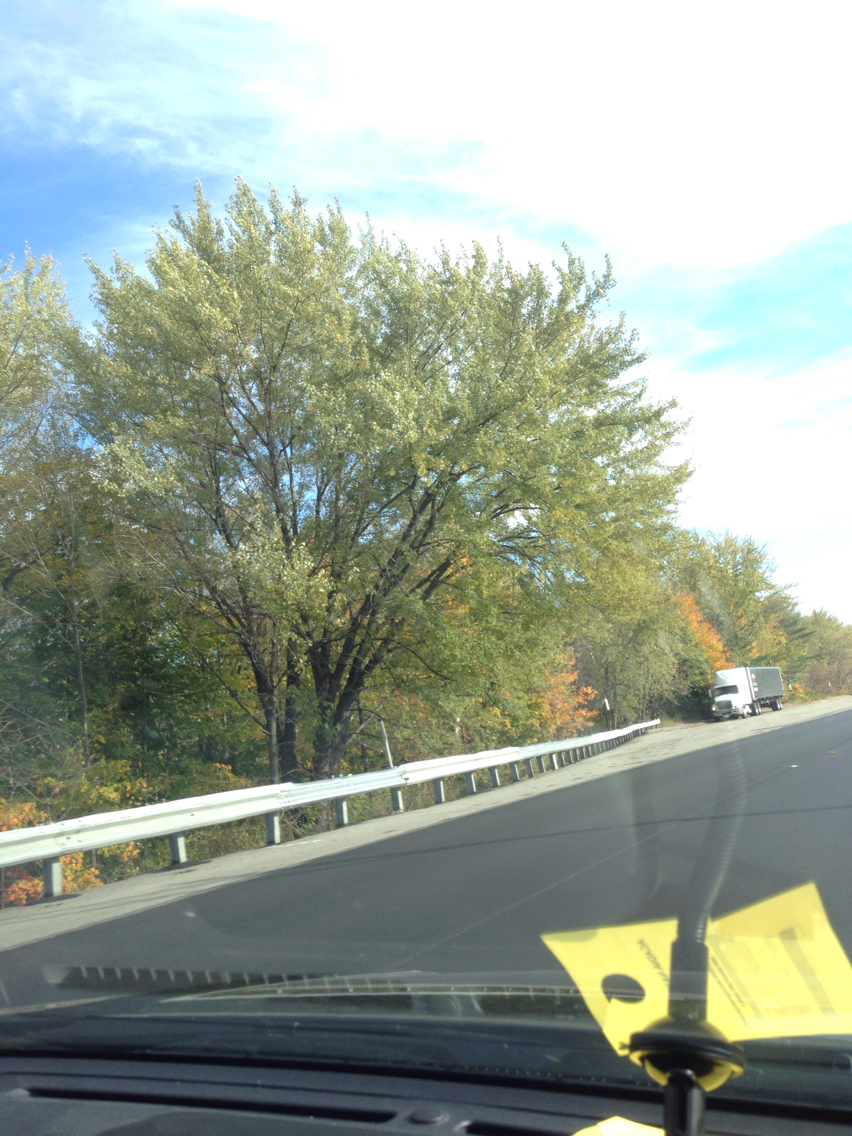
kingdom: Plantae
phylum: Tracheophyta
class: Magnoliopsida
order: Sapindales
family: Sapindaceae
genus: Acer
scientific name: Acer saccharinum
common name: Silver maple
